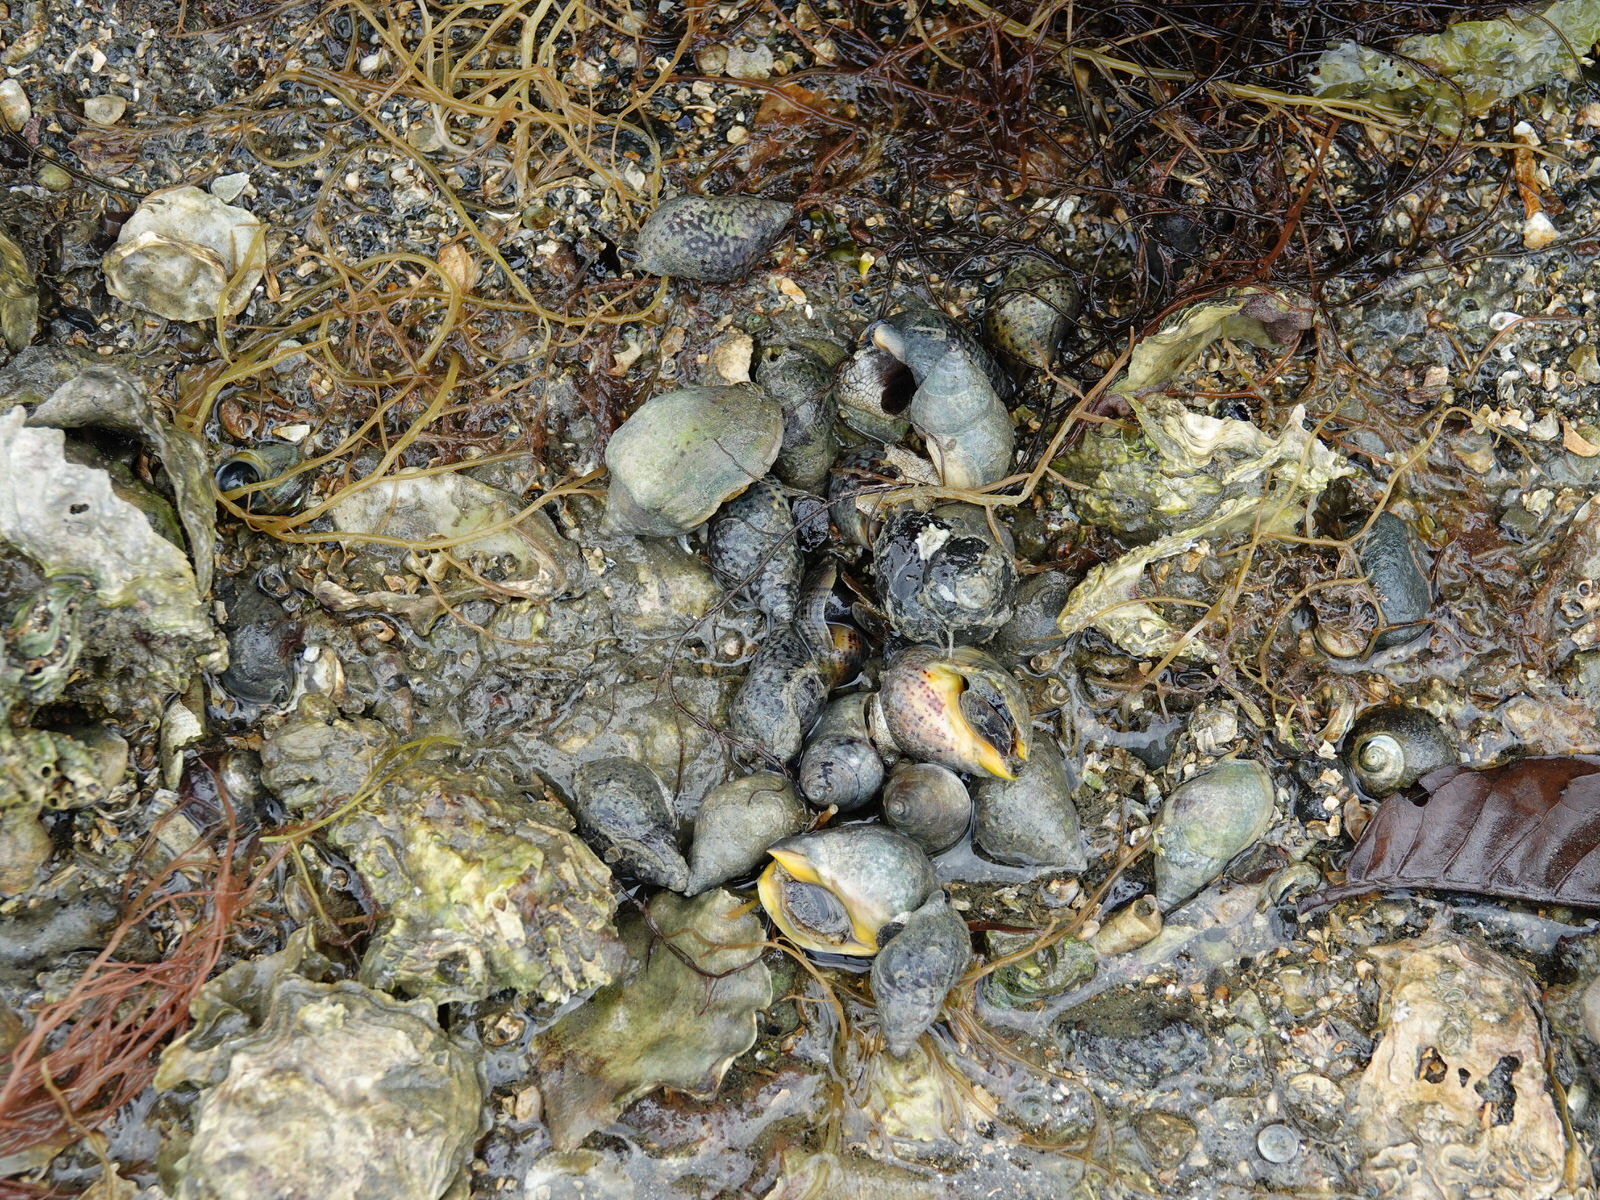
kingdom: Animalia
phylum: Mollusca
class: Gastropoda
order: Neogastropoda
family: Cominellidae
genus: Cominella
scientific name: Cominella adspersa
